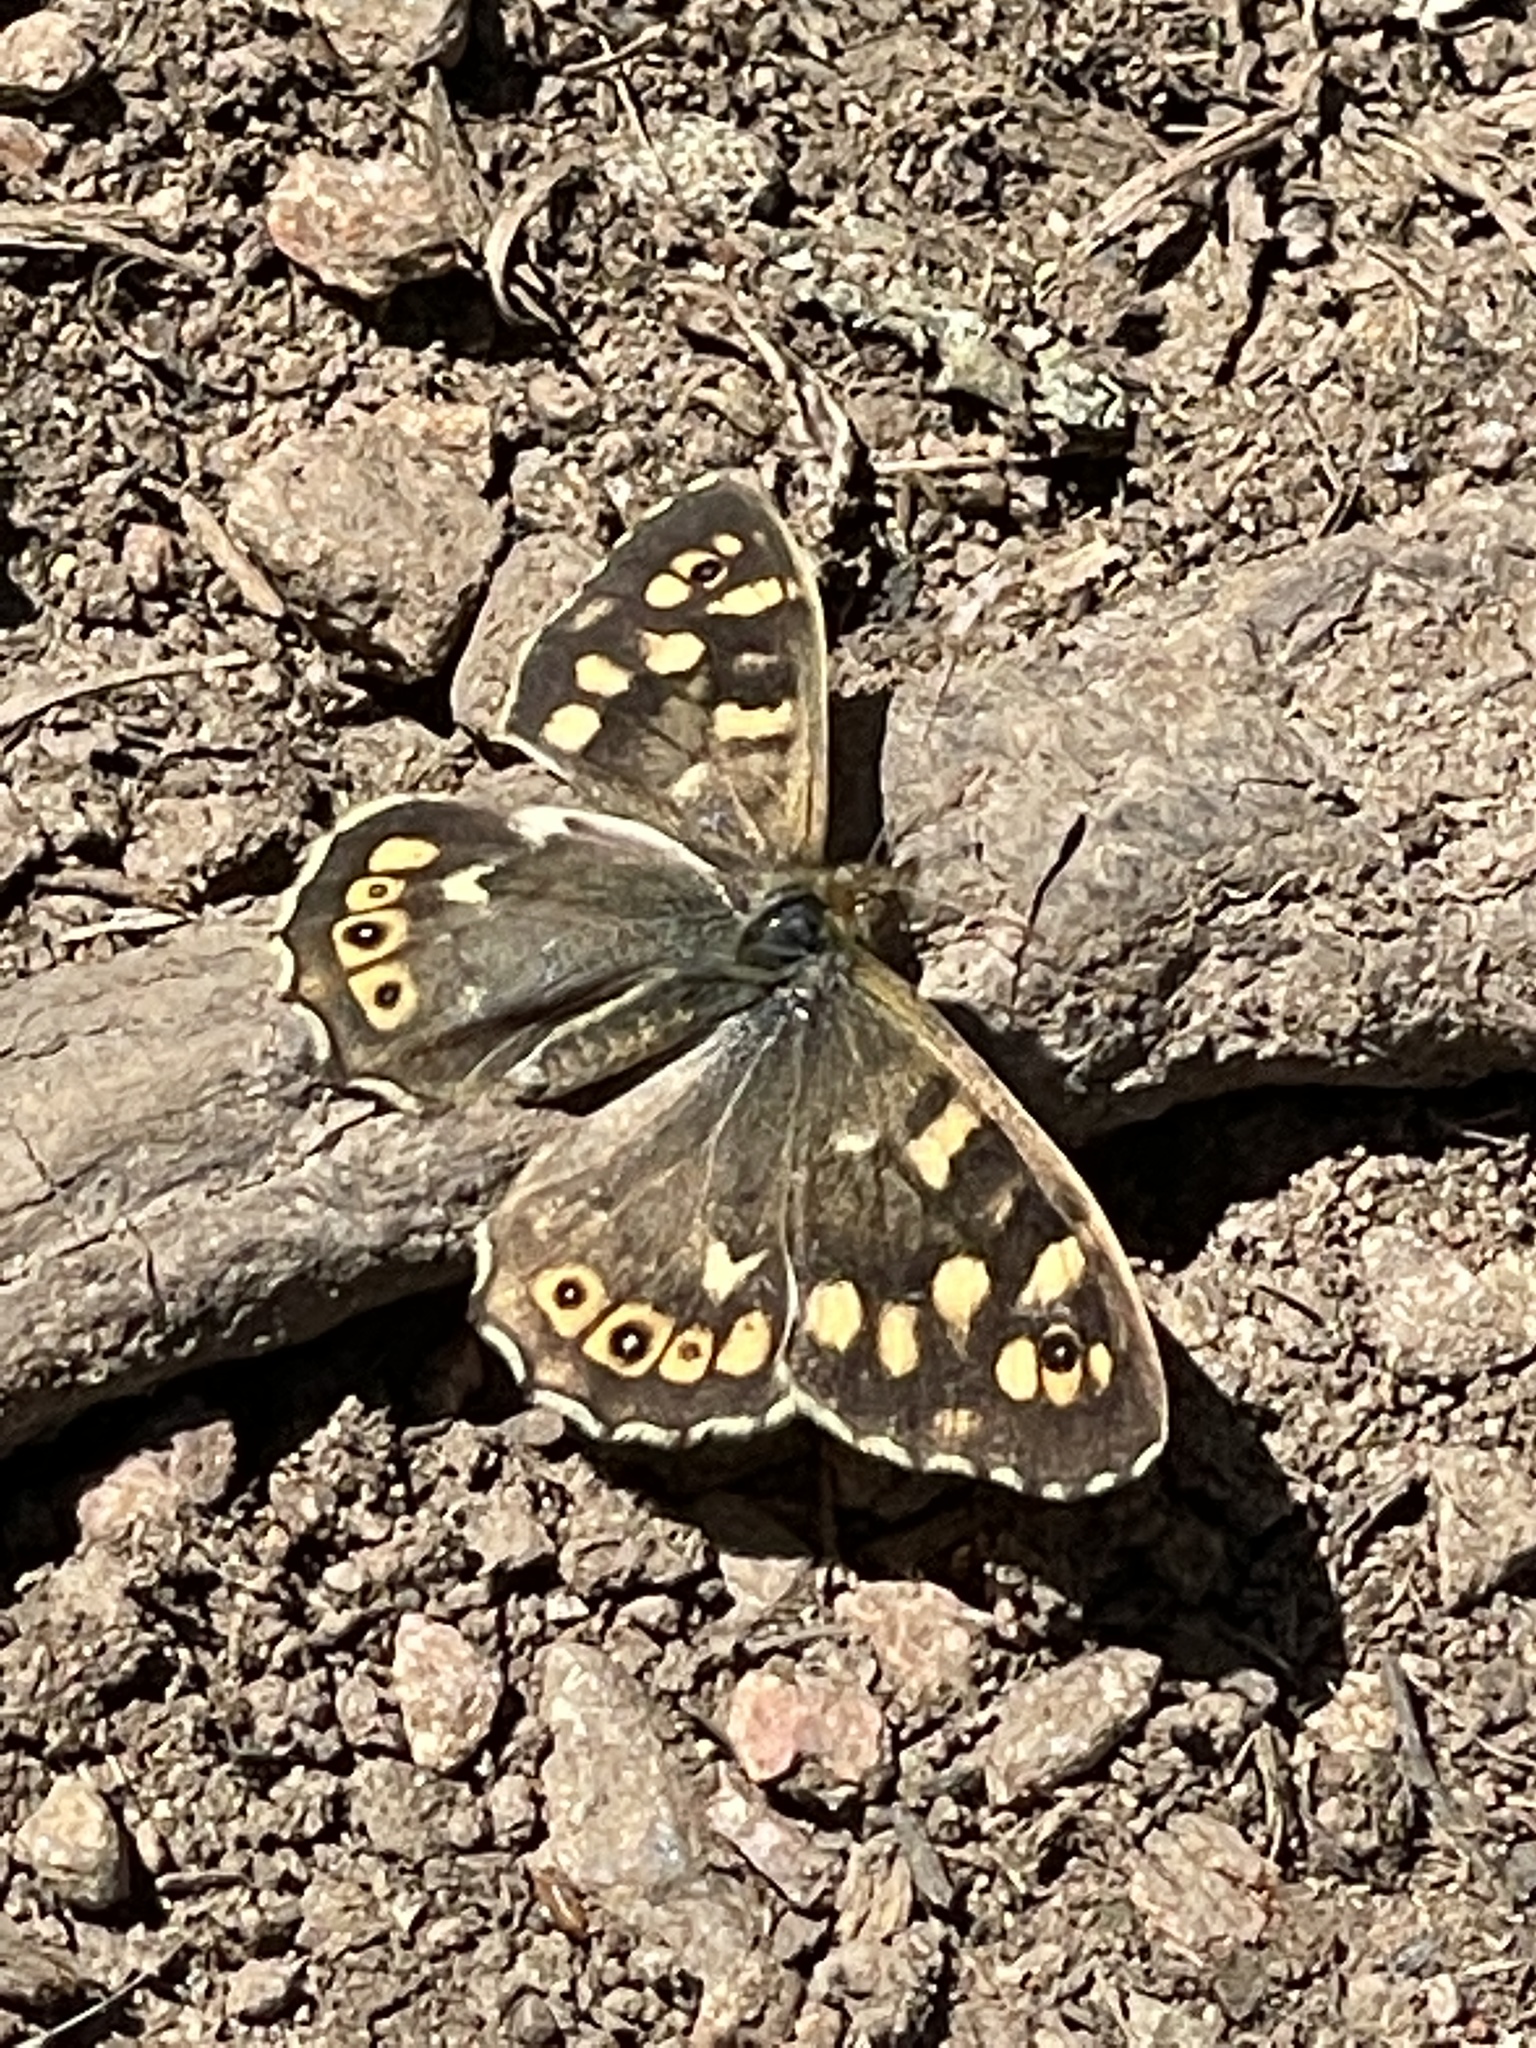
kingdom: Animalia
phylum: Arthropoda
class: Insecta
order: Lepidoptera
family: Nymphalidae
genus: Pararge
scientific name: Pararge aegeria
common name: Speckled wood
